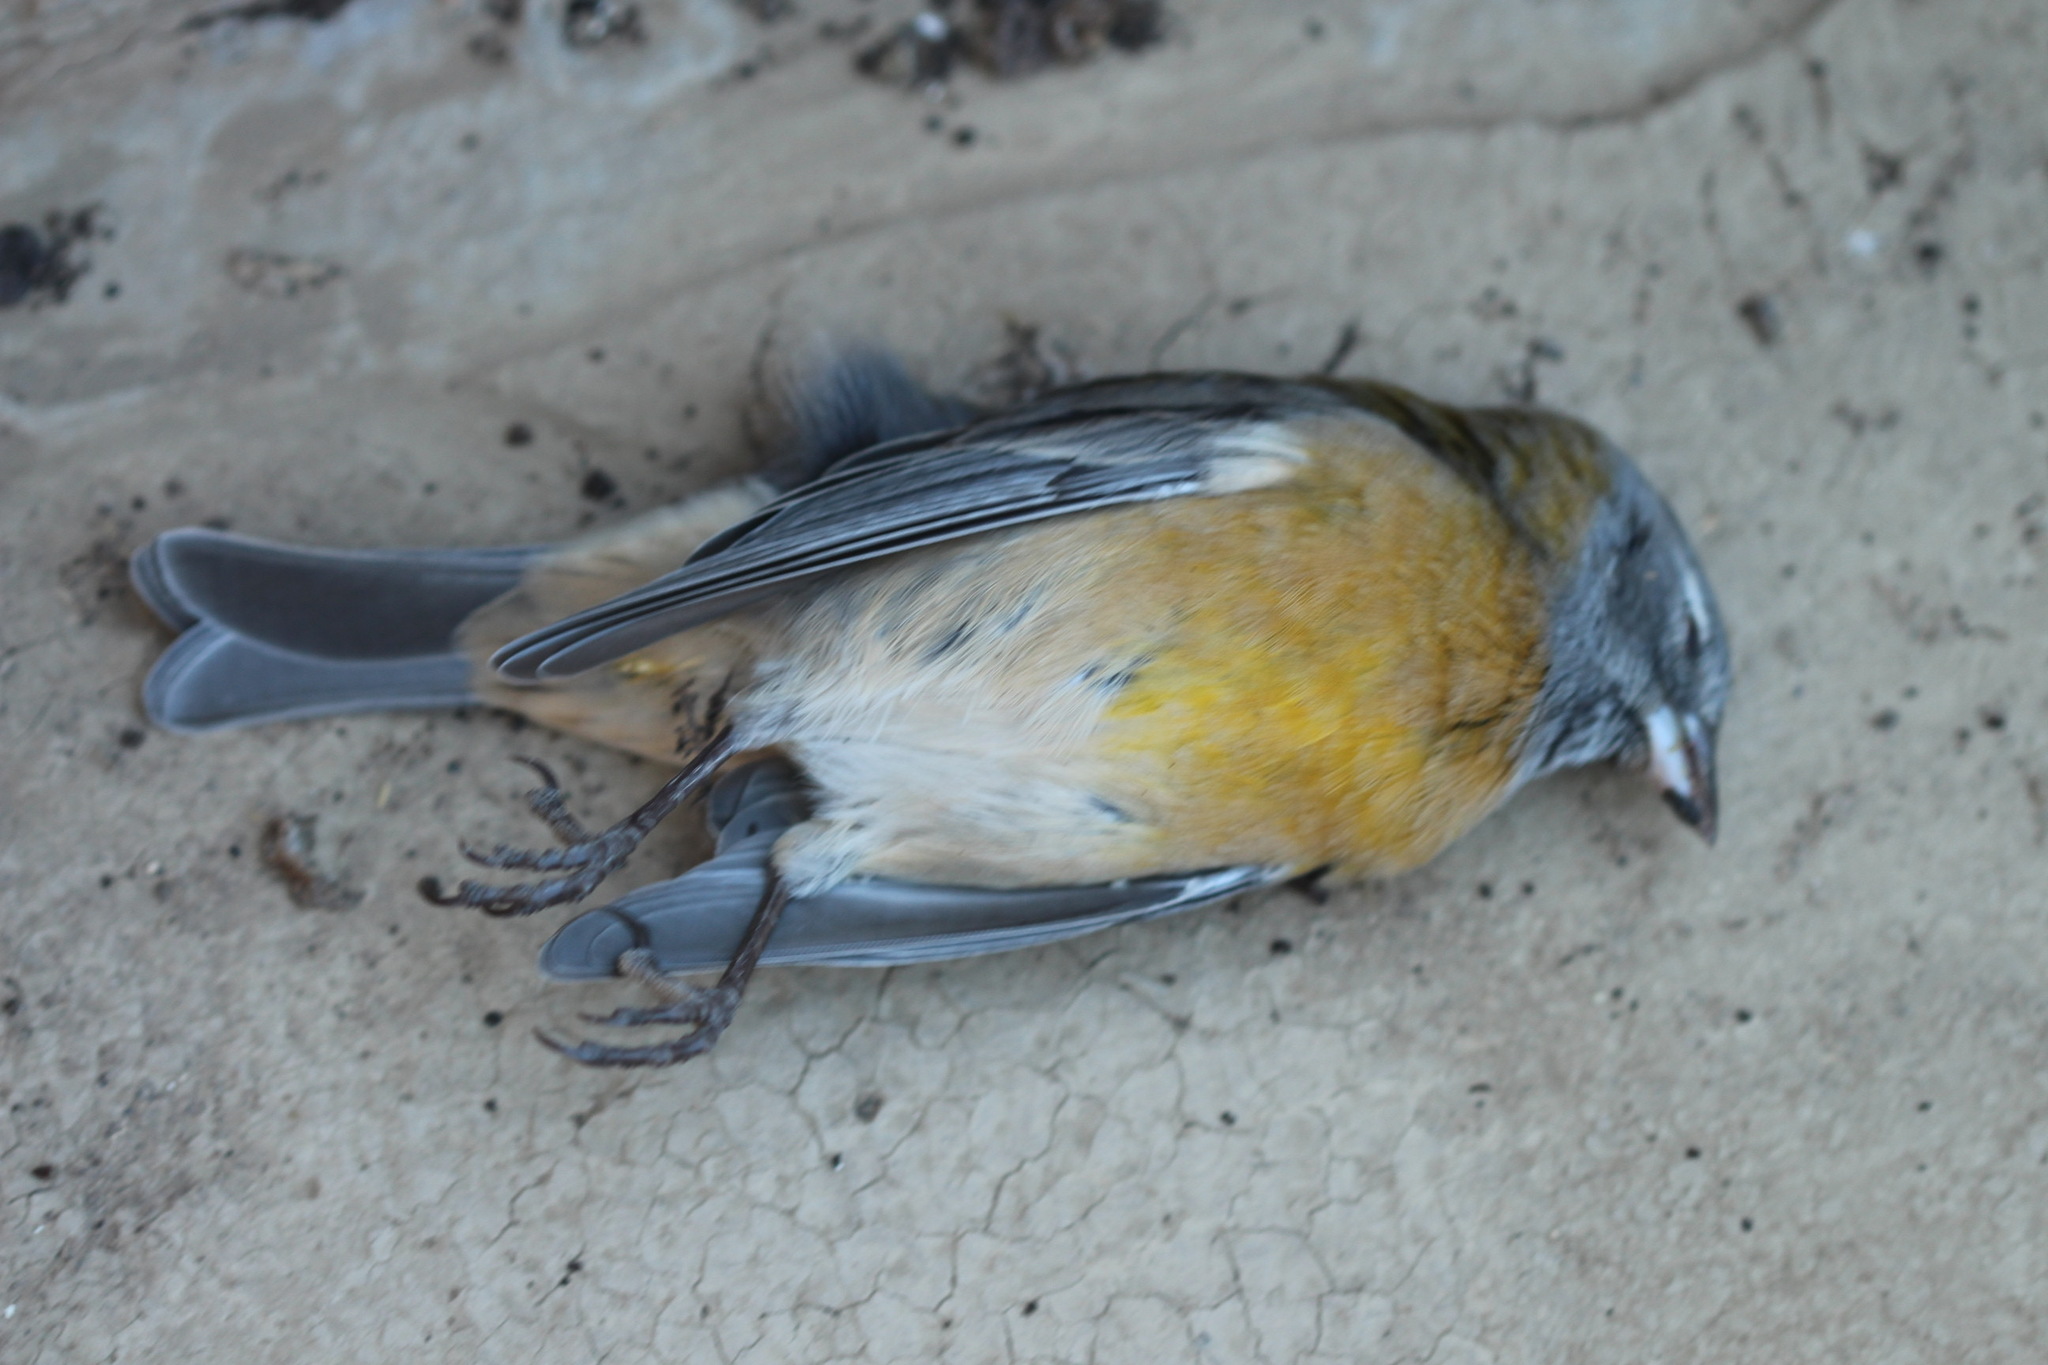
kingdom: Animalia
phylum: Chordata
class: Aves
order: Passeriformes
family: Thraupidae
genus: Phrygilus
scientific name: Phrygilus gayi
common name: Grey-hooded sierra finch
